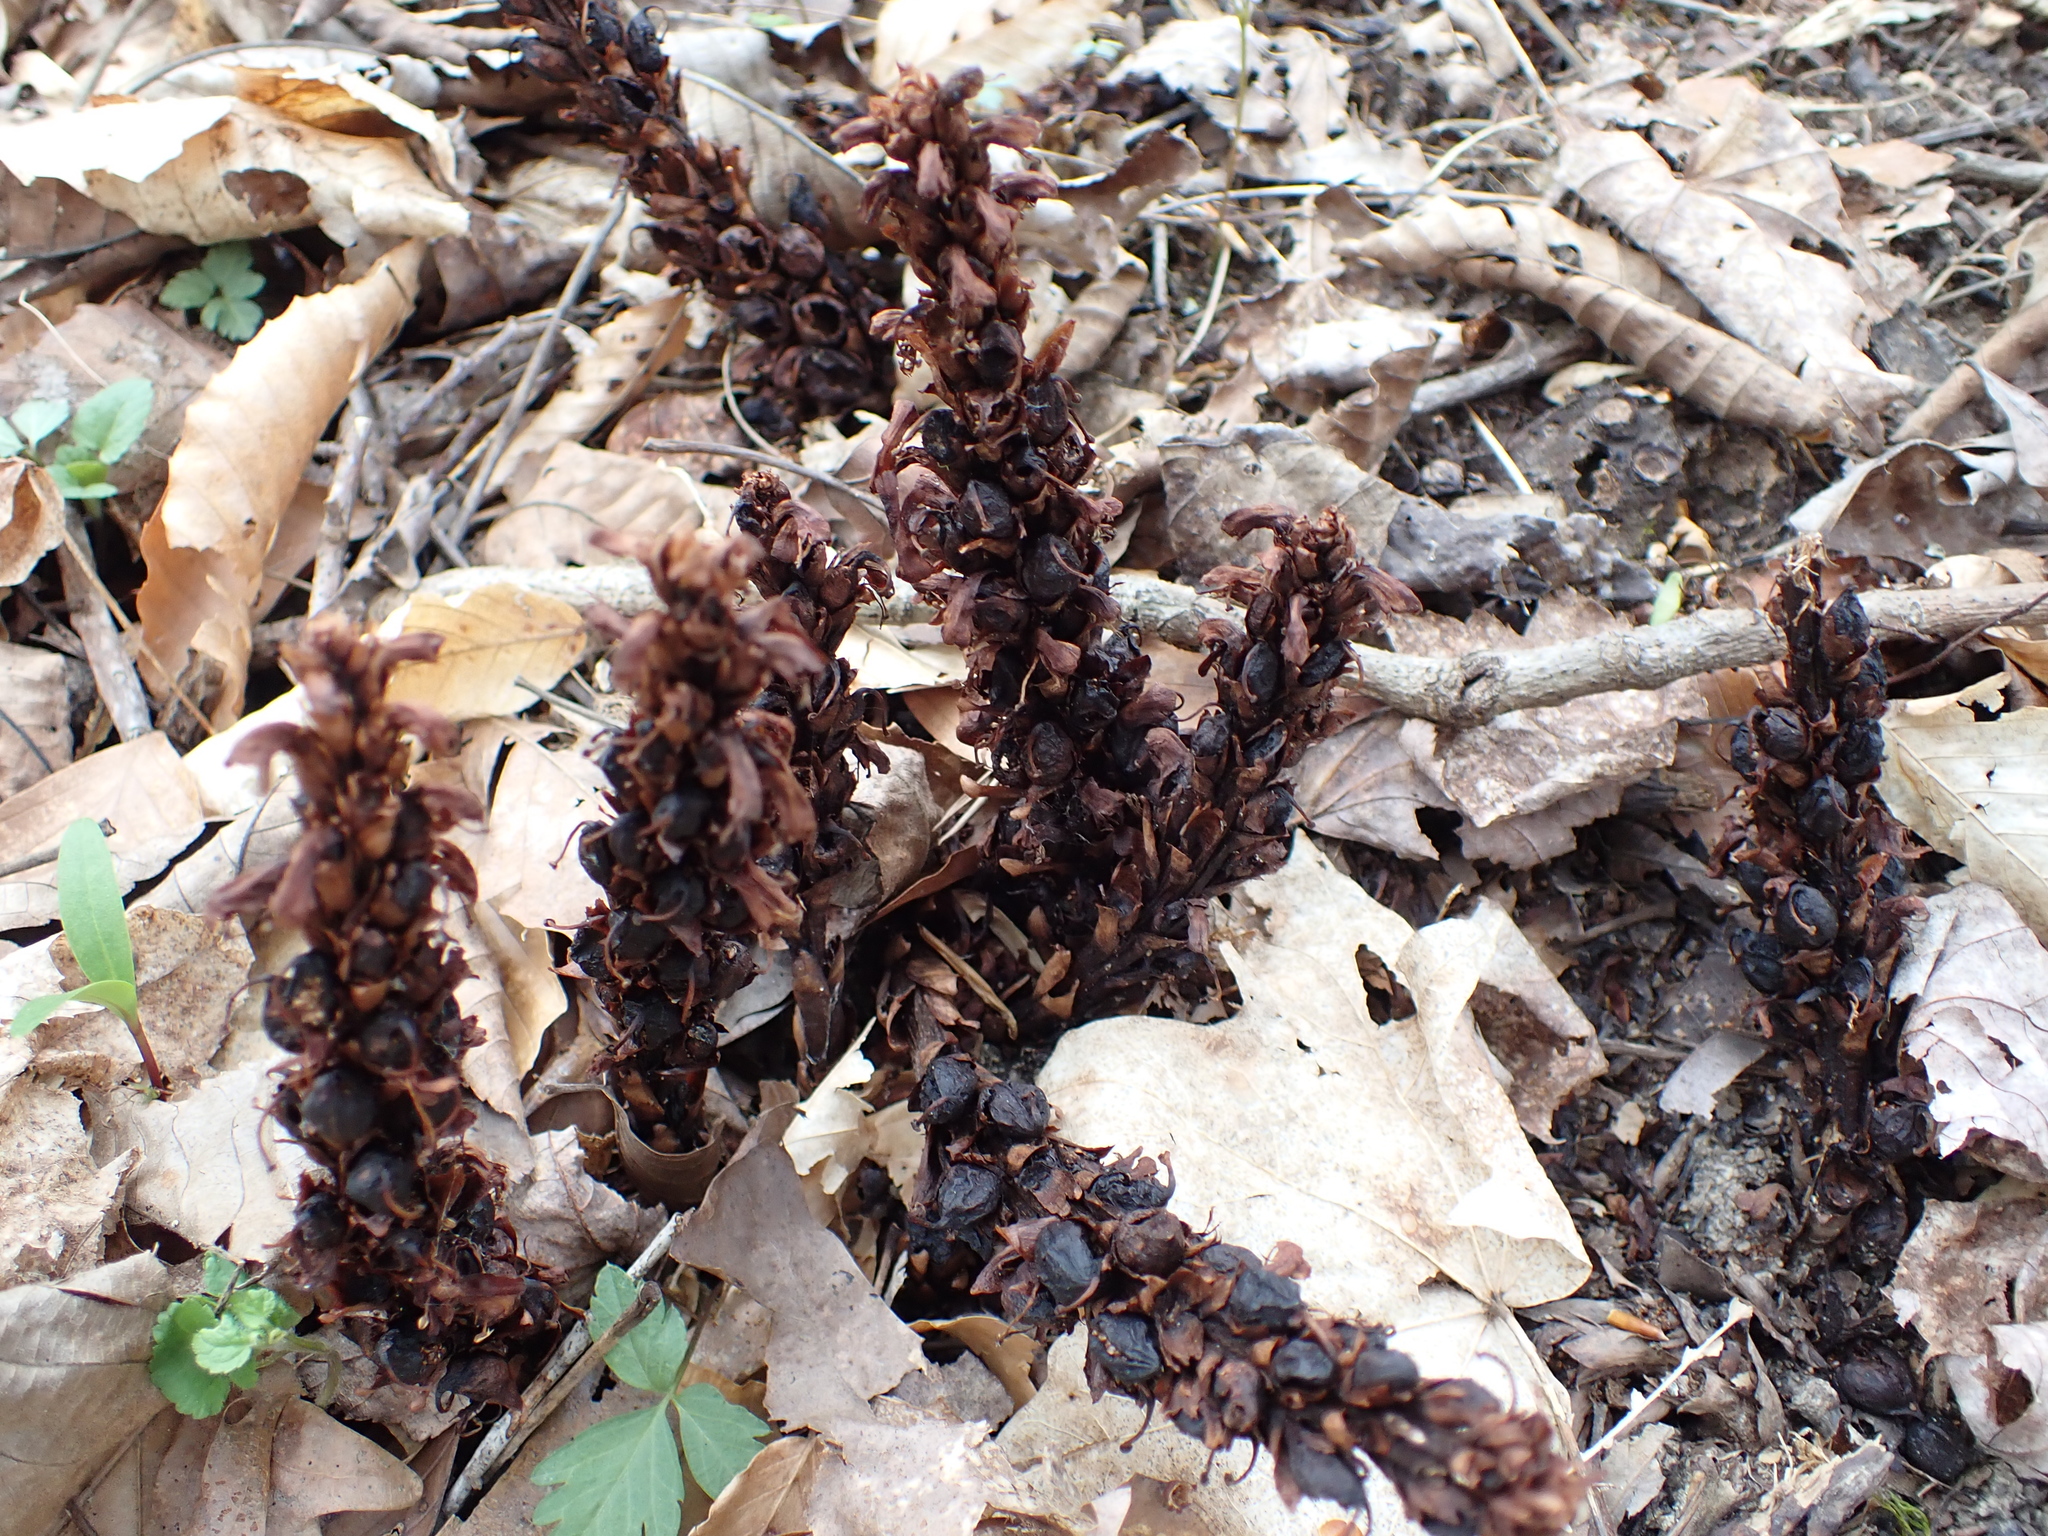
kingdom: Plantae
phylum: Tracheophyta
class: Magnoliopsida
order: Lamiales
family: Orobanchaceae
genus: Conopholis
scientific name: Conopholis americana
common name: American cancer-root
